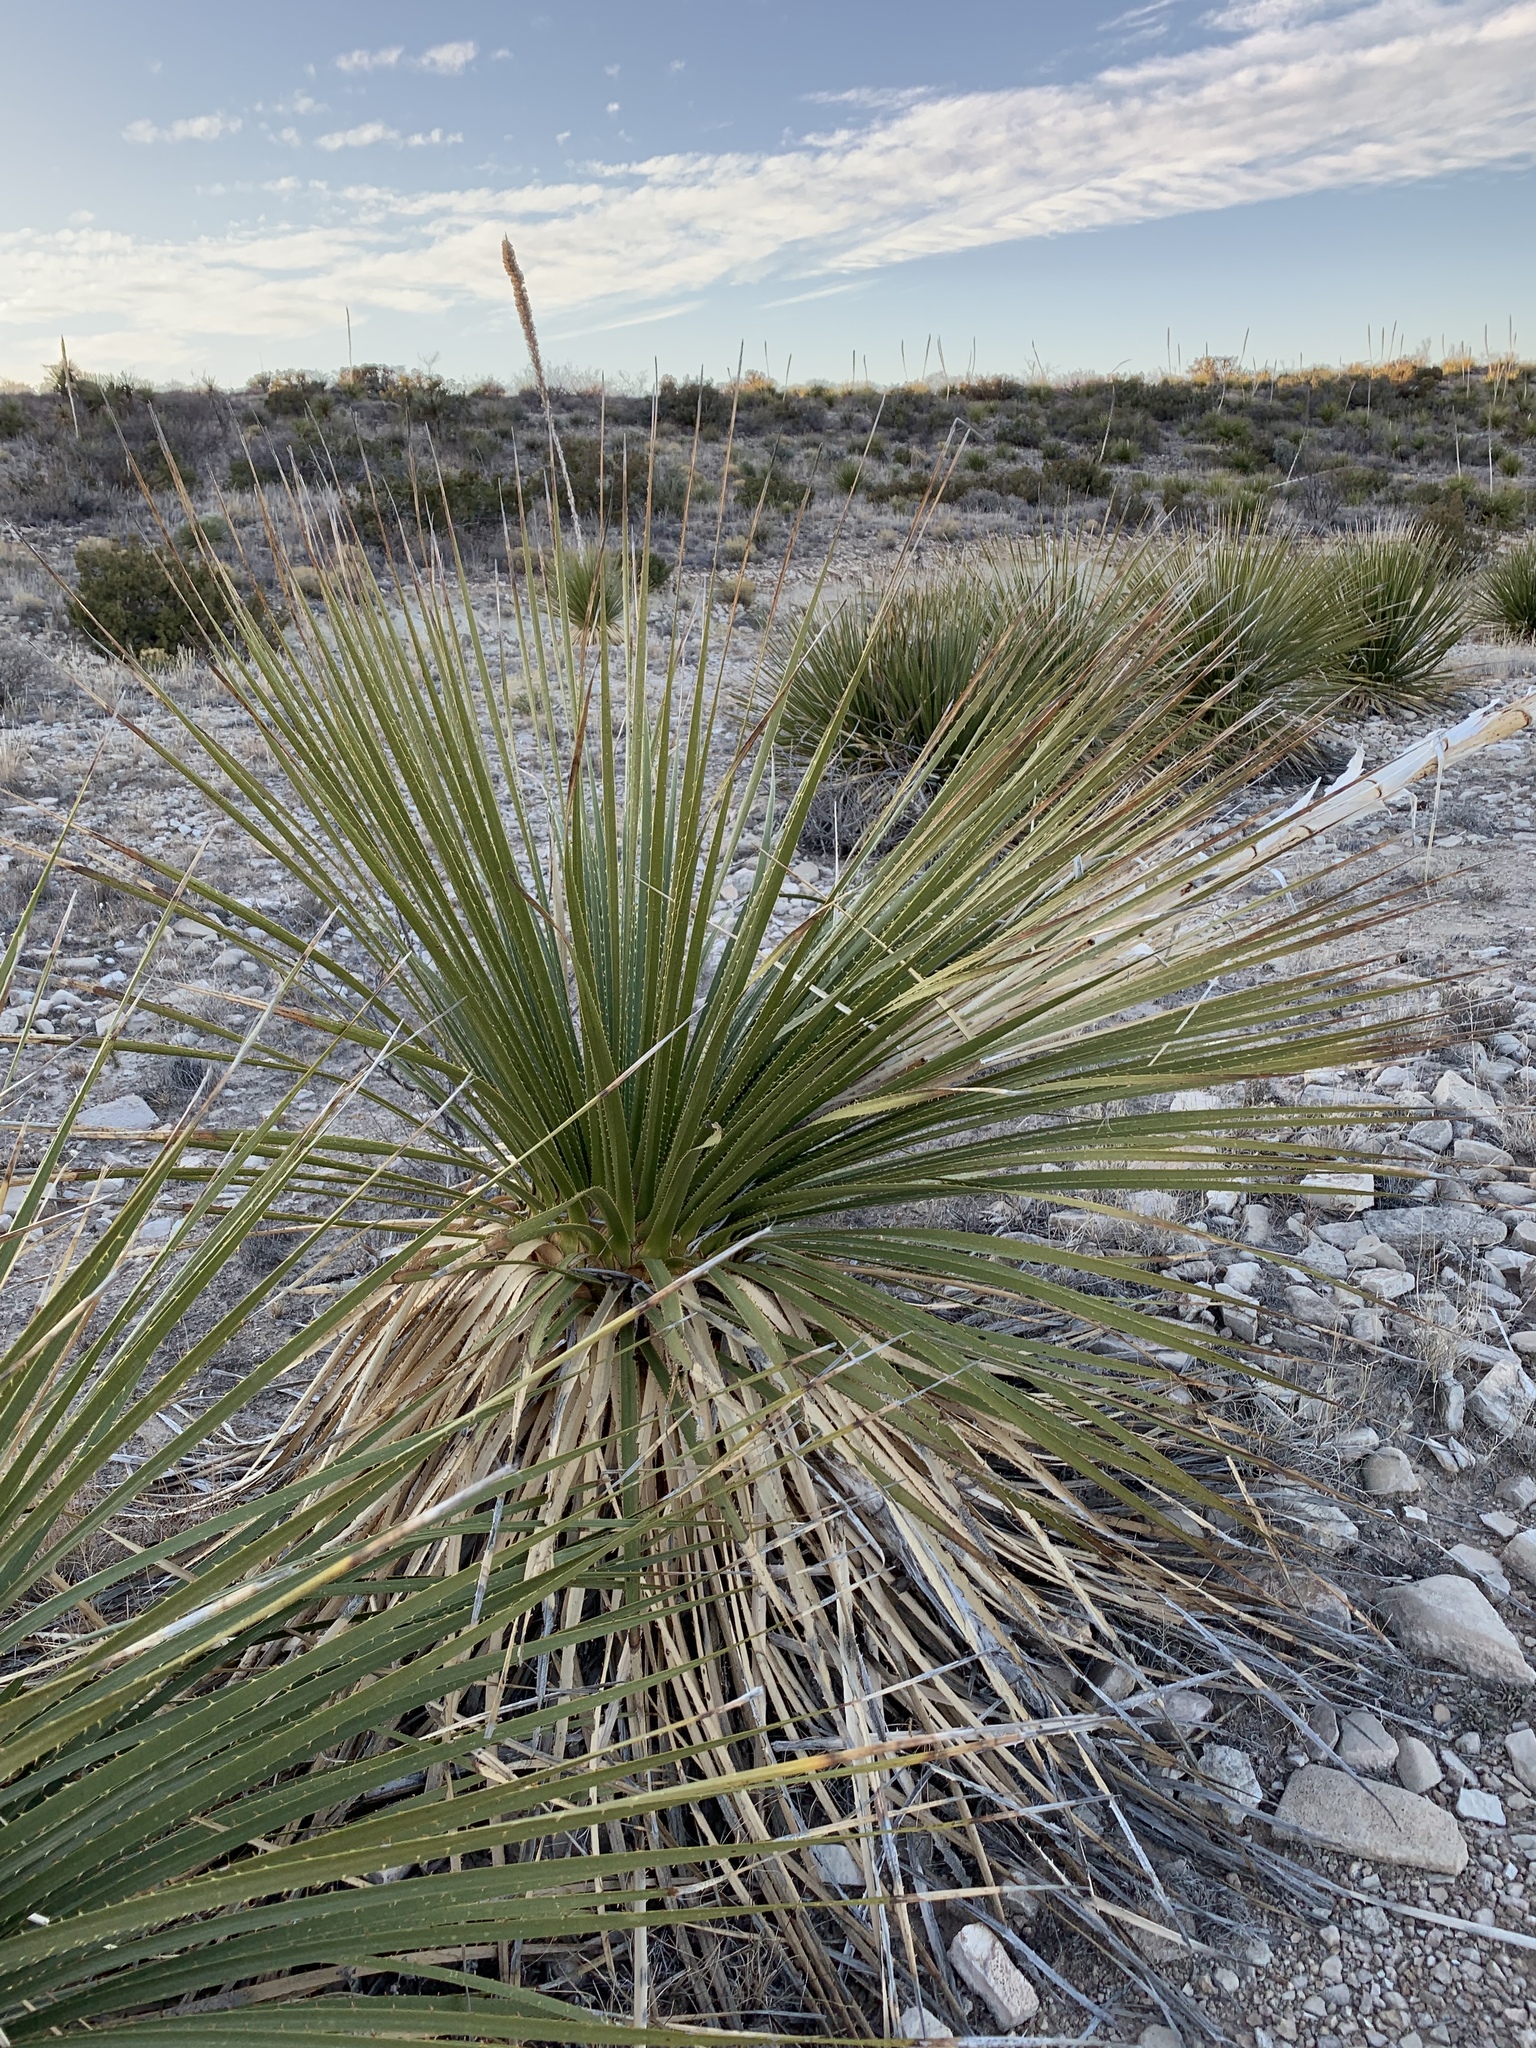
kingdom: Plantae
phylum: Tracheophyta
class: Liliopsida
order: Asparagales
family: Asparagaceae
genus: Dasylirion
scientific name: Dasylirion leiophyllum
